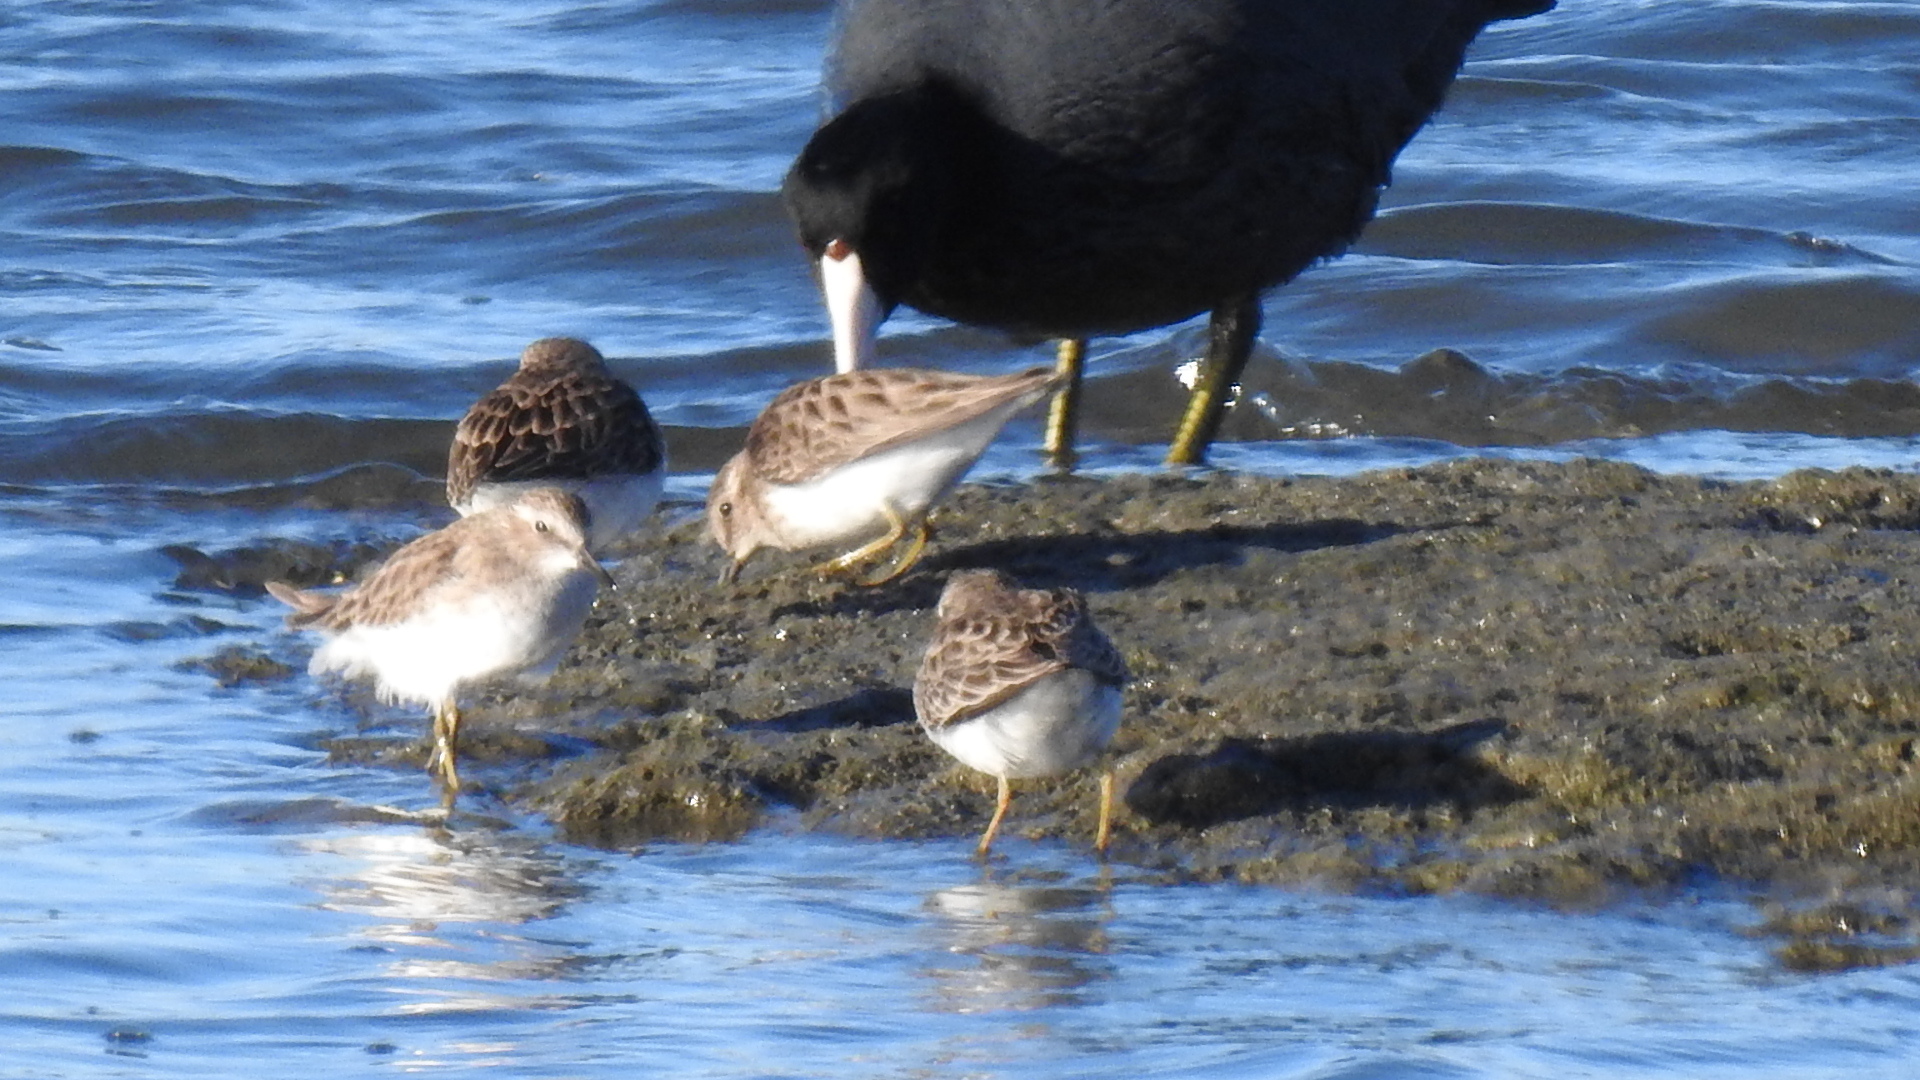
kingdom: Animalia
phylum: Chordata
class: Aves
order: Gruiformes
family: Rallidae
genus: Fulica
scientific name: Fulica americana
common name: American coot
